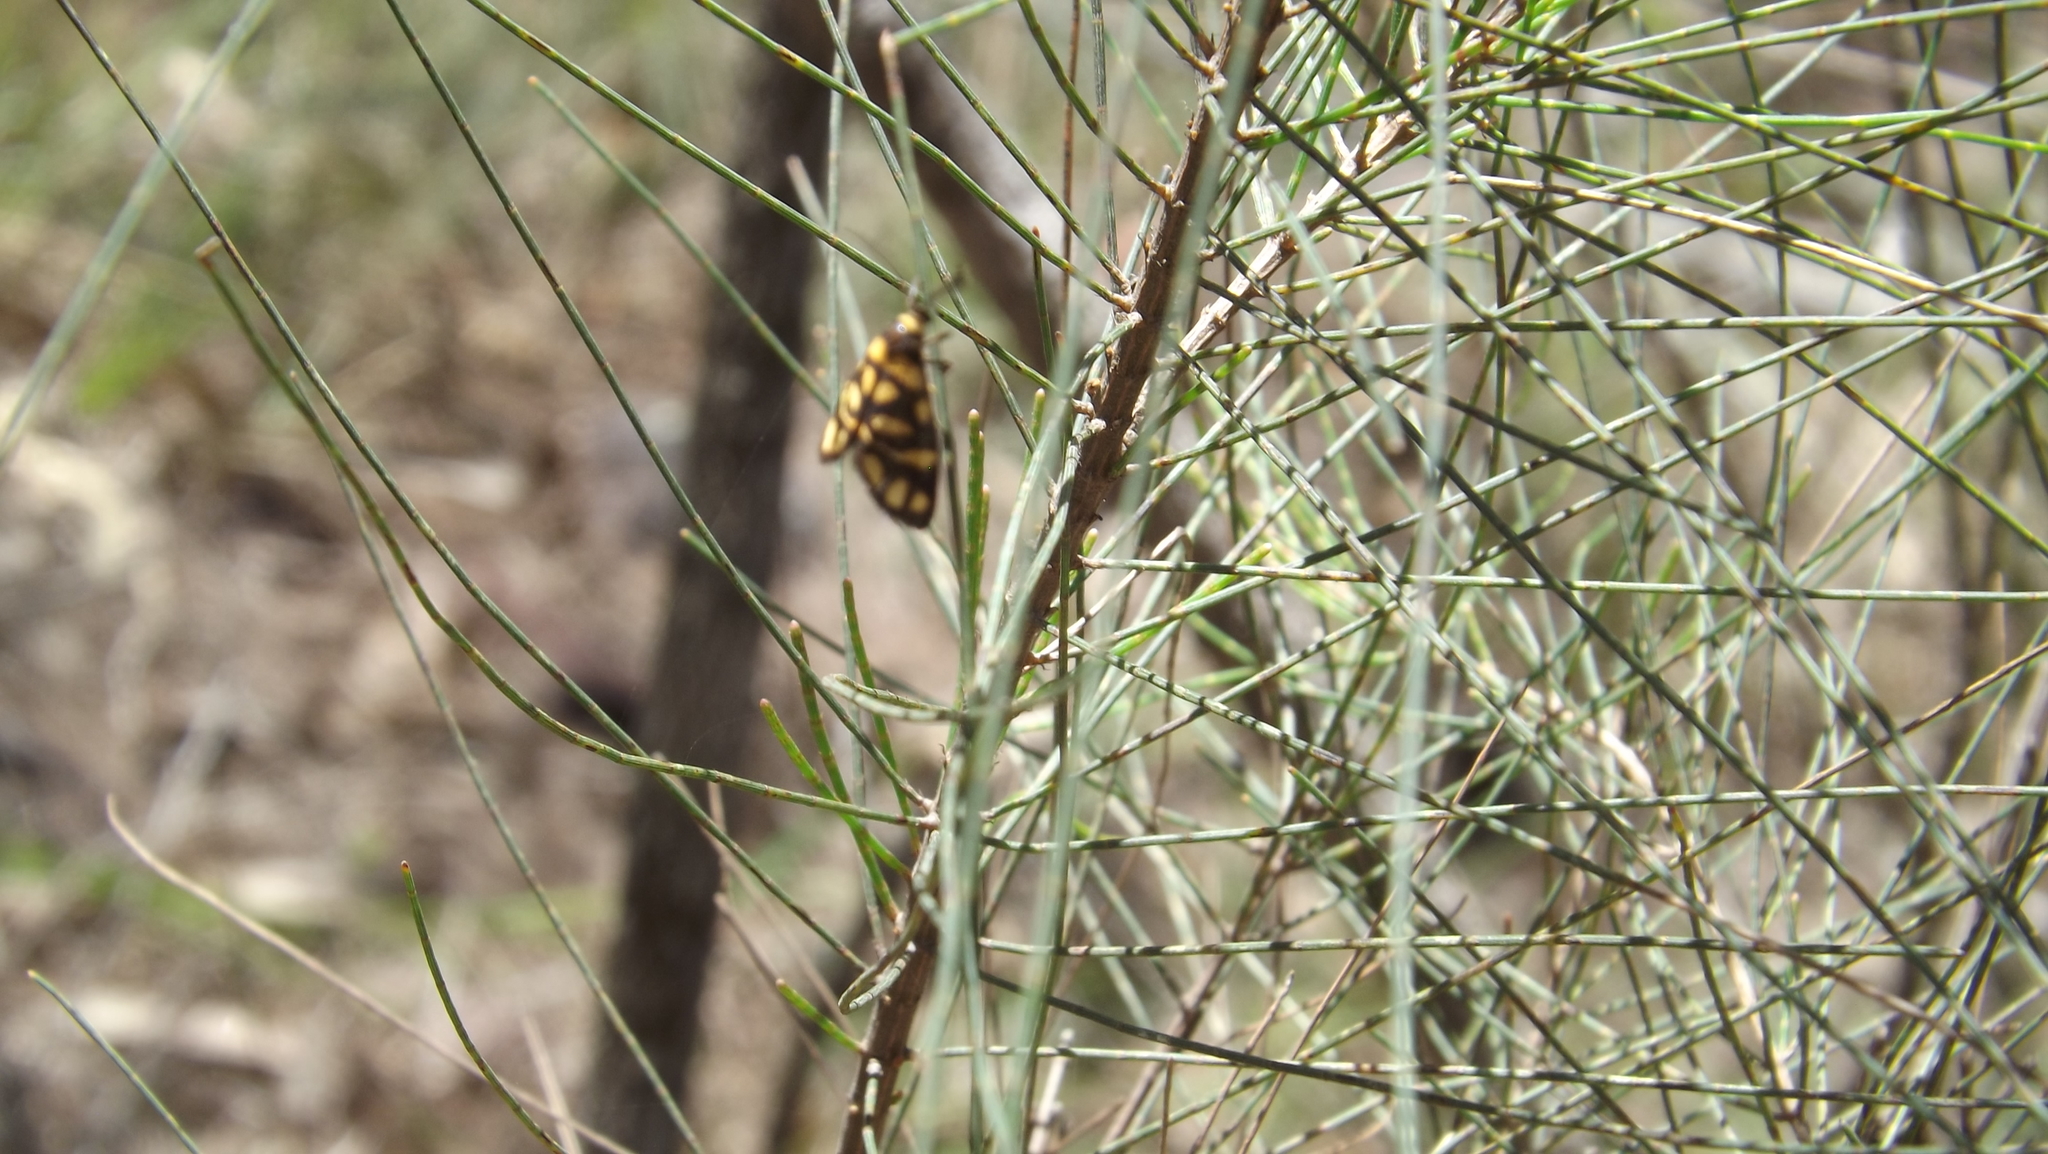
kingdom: Animalia
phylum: Arthropoda
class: Insecta
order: Lepidoptera
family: Erebidae
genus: Asura
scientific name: Asura lydia
